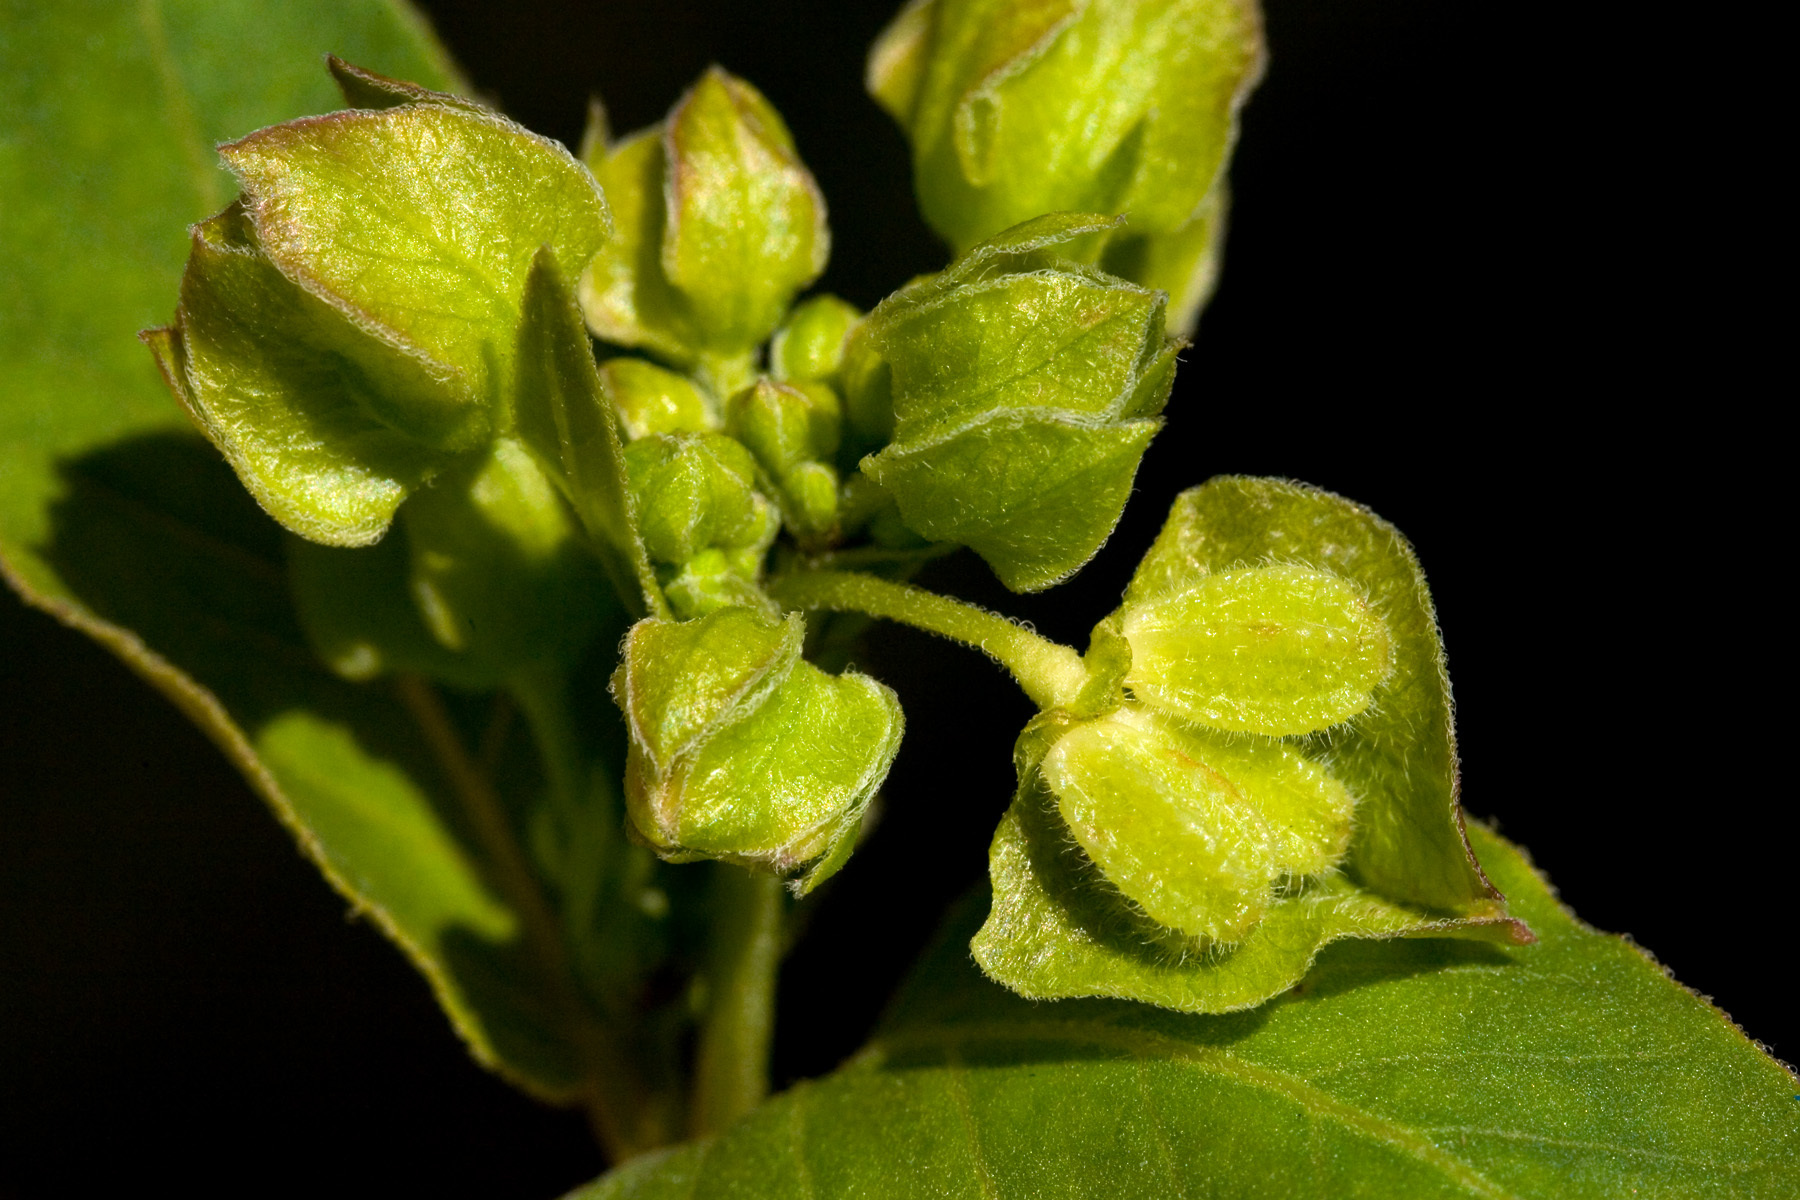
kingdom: Plantae
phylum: Tracheophyta
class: Magnoliopsida
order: Caryophyllales
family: Nyctaginaceae
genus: Mirabilis
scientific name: Mirabilis nyctaginea
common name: Umbrella wort
